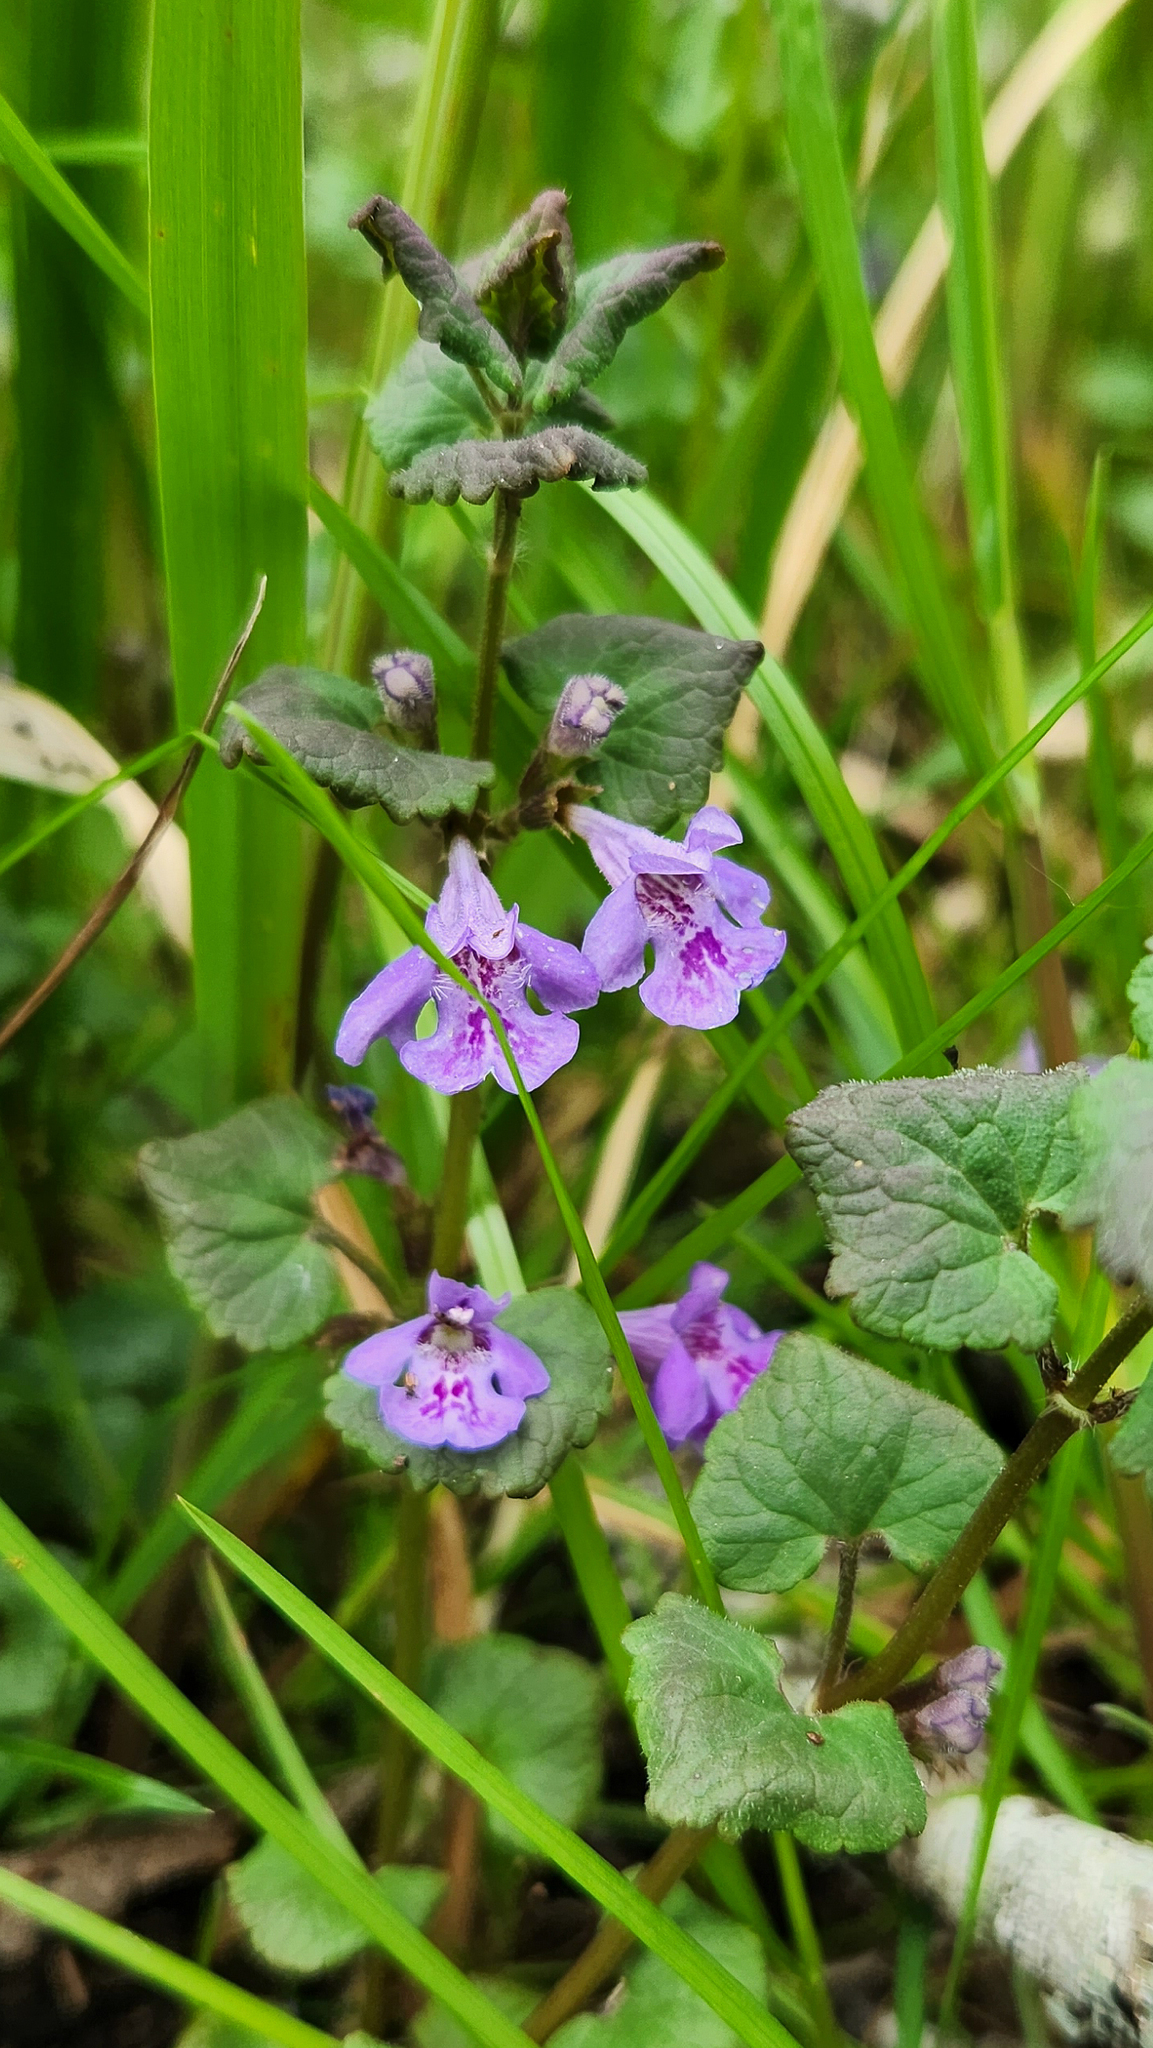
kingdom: Plantae
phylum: Tracheophyta
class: Magnoliopsida
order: Lamiales
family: Lamiaceae
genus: Glechoma
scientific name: Glechoma hederacea
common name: Ground ivy
